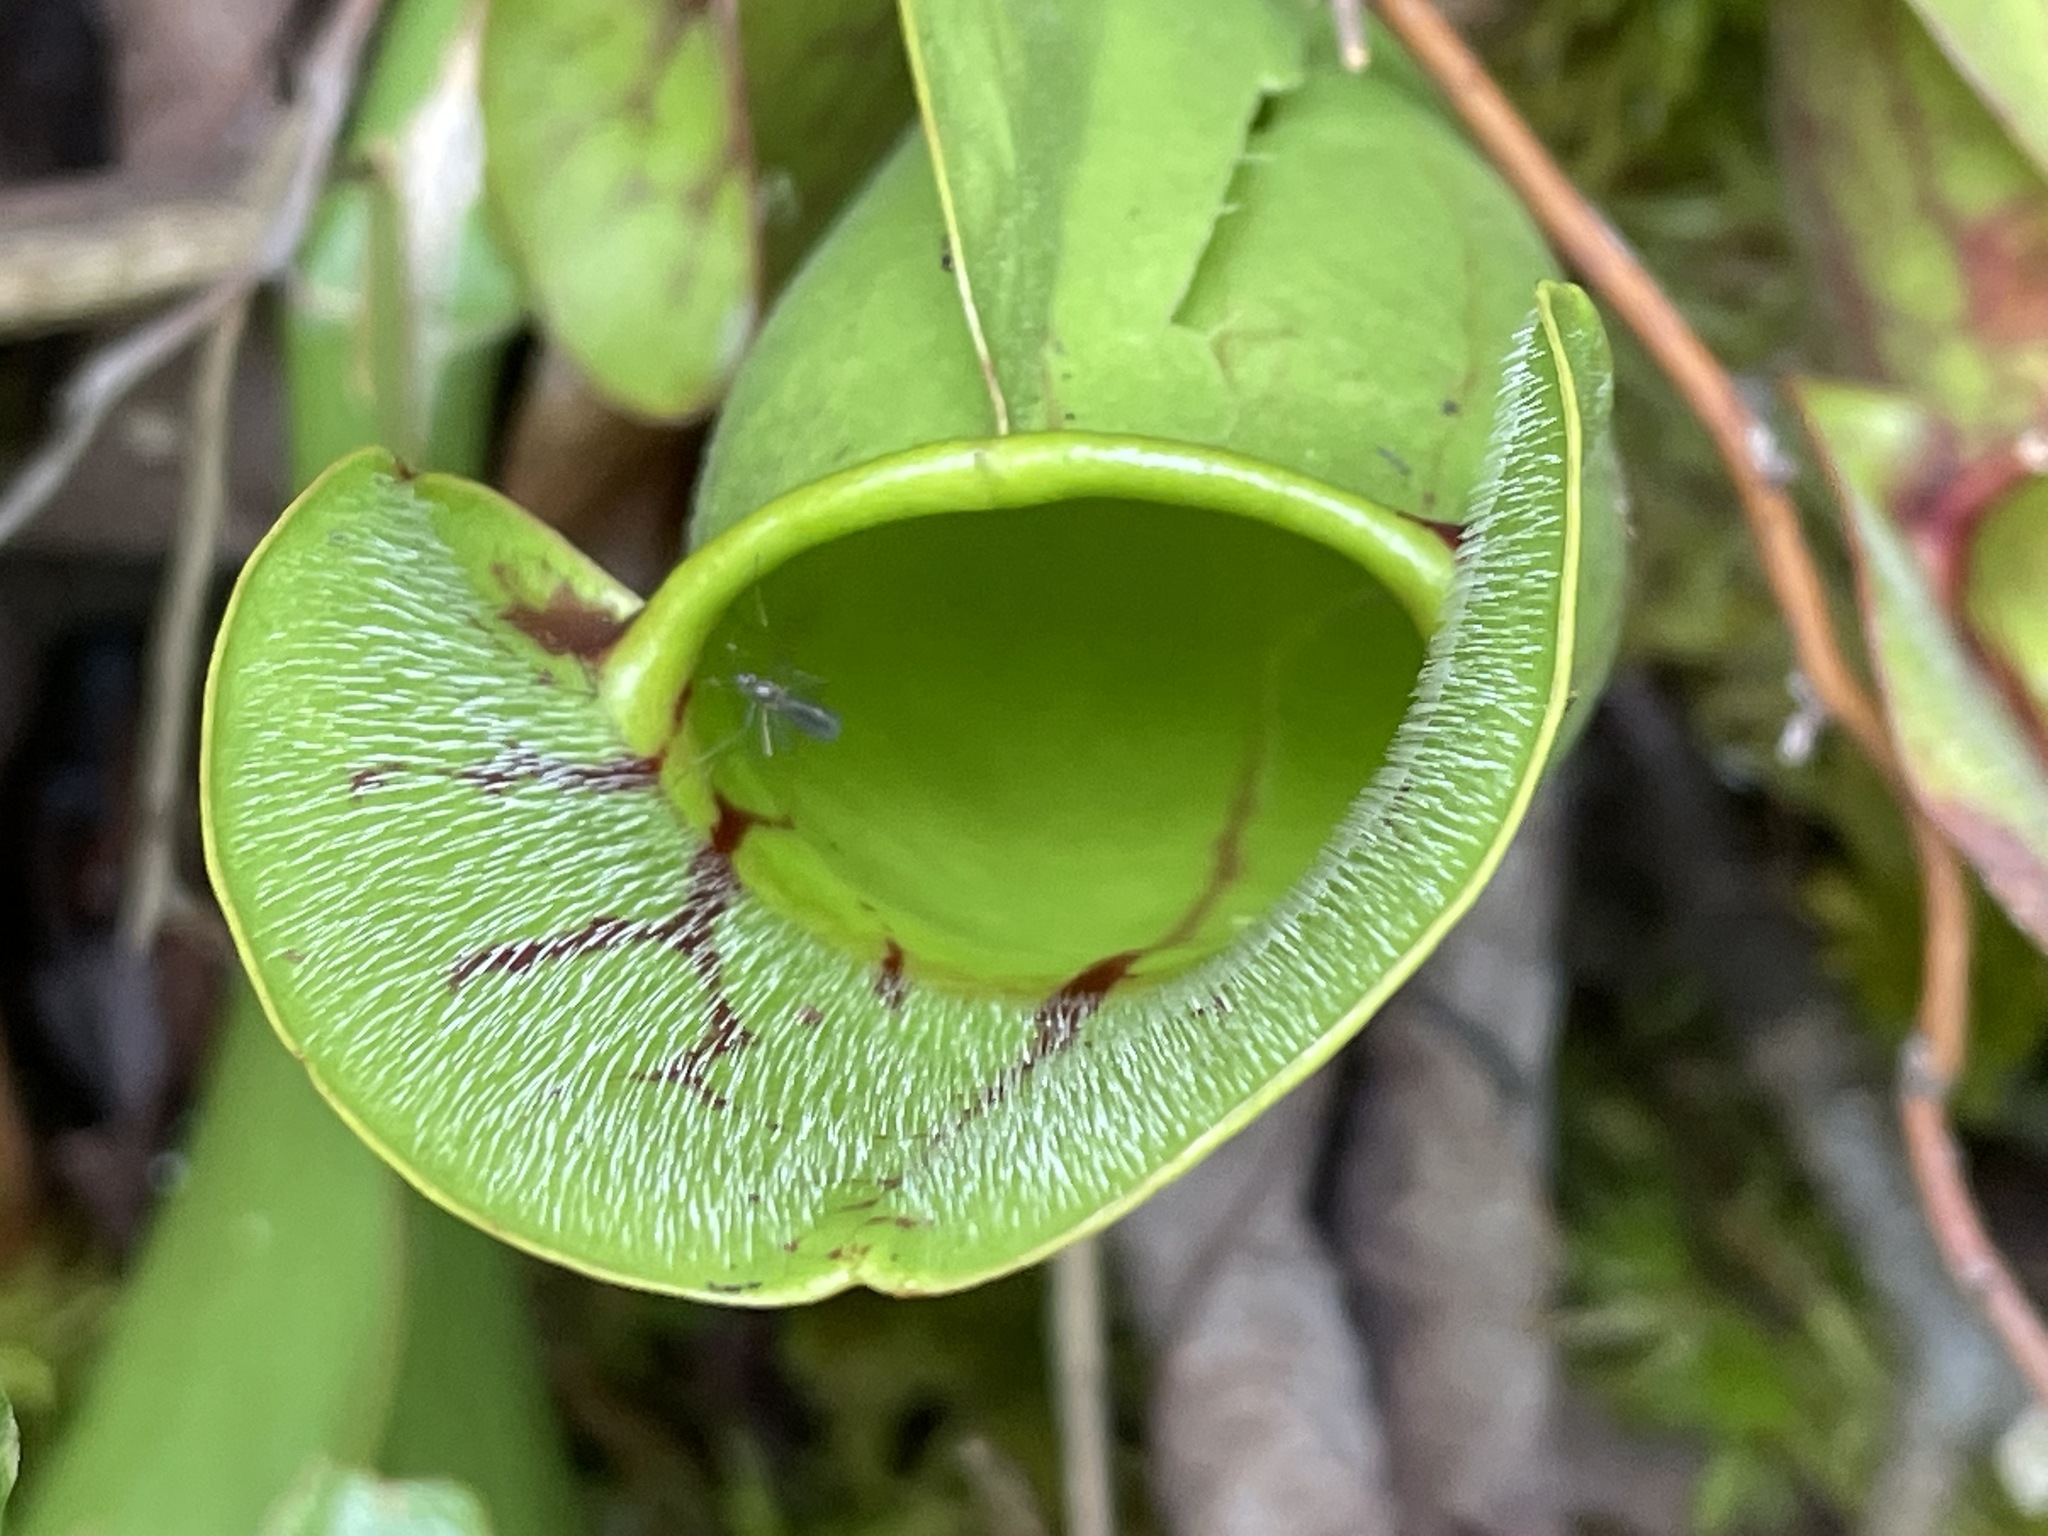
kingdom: Plantae
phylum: Tracheophyta
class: Magnoliopsida
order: Ericales
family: Sarraceniaceae
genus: Sarracenia
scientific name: Sarracenia purpurea
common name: Pitcherplant
